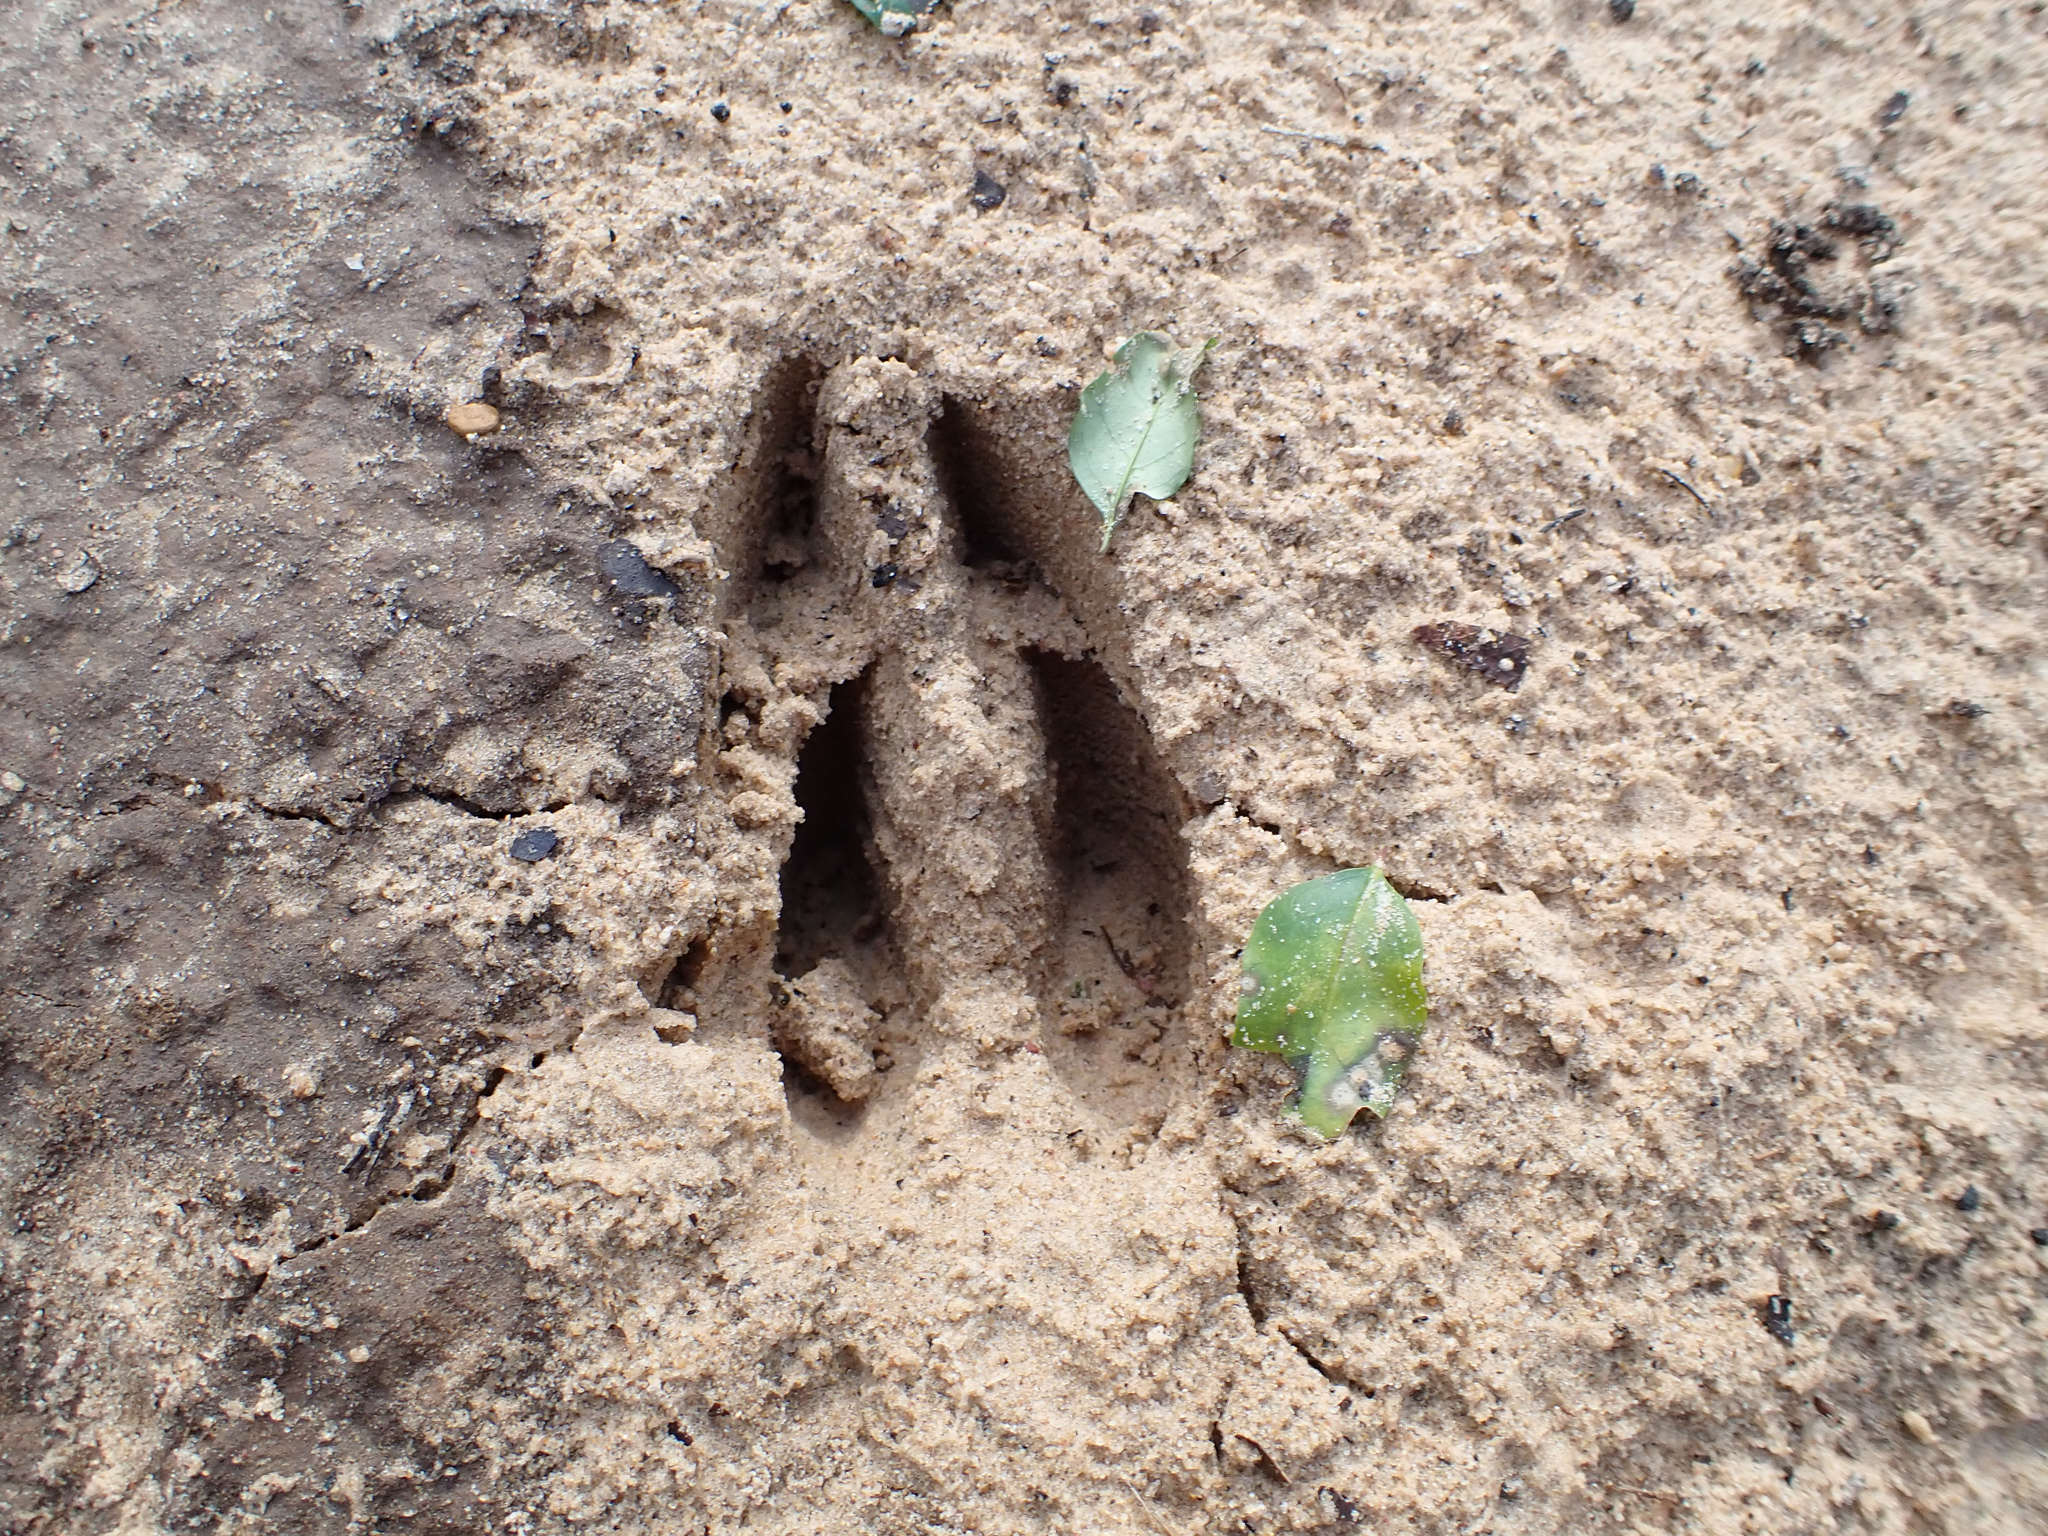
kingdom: Animalia
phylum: Chordata
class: Mammalia
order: Artiodactyla
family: Cervidae
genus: Odocoileus
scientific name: Odocoileus virginianus
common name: White-tailed deer
